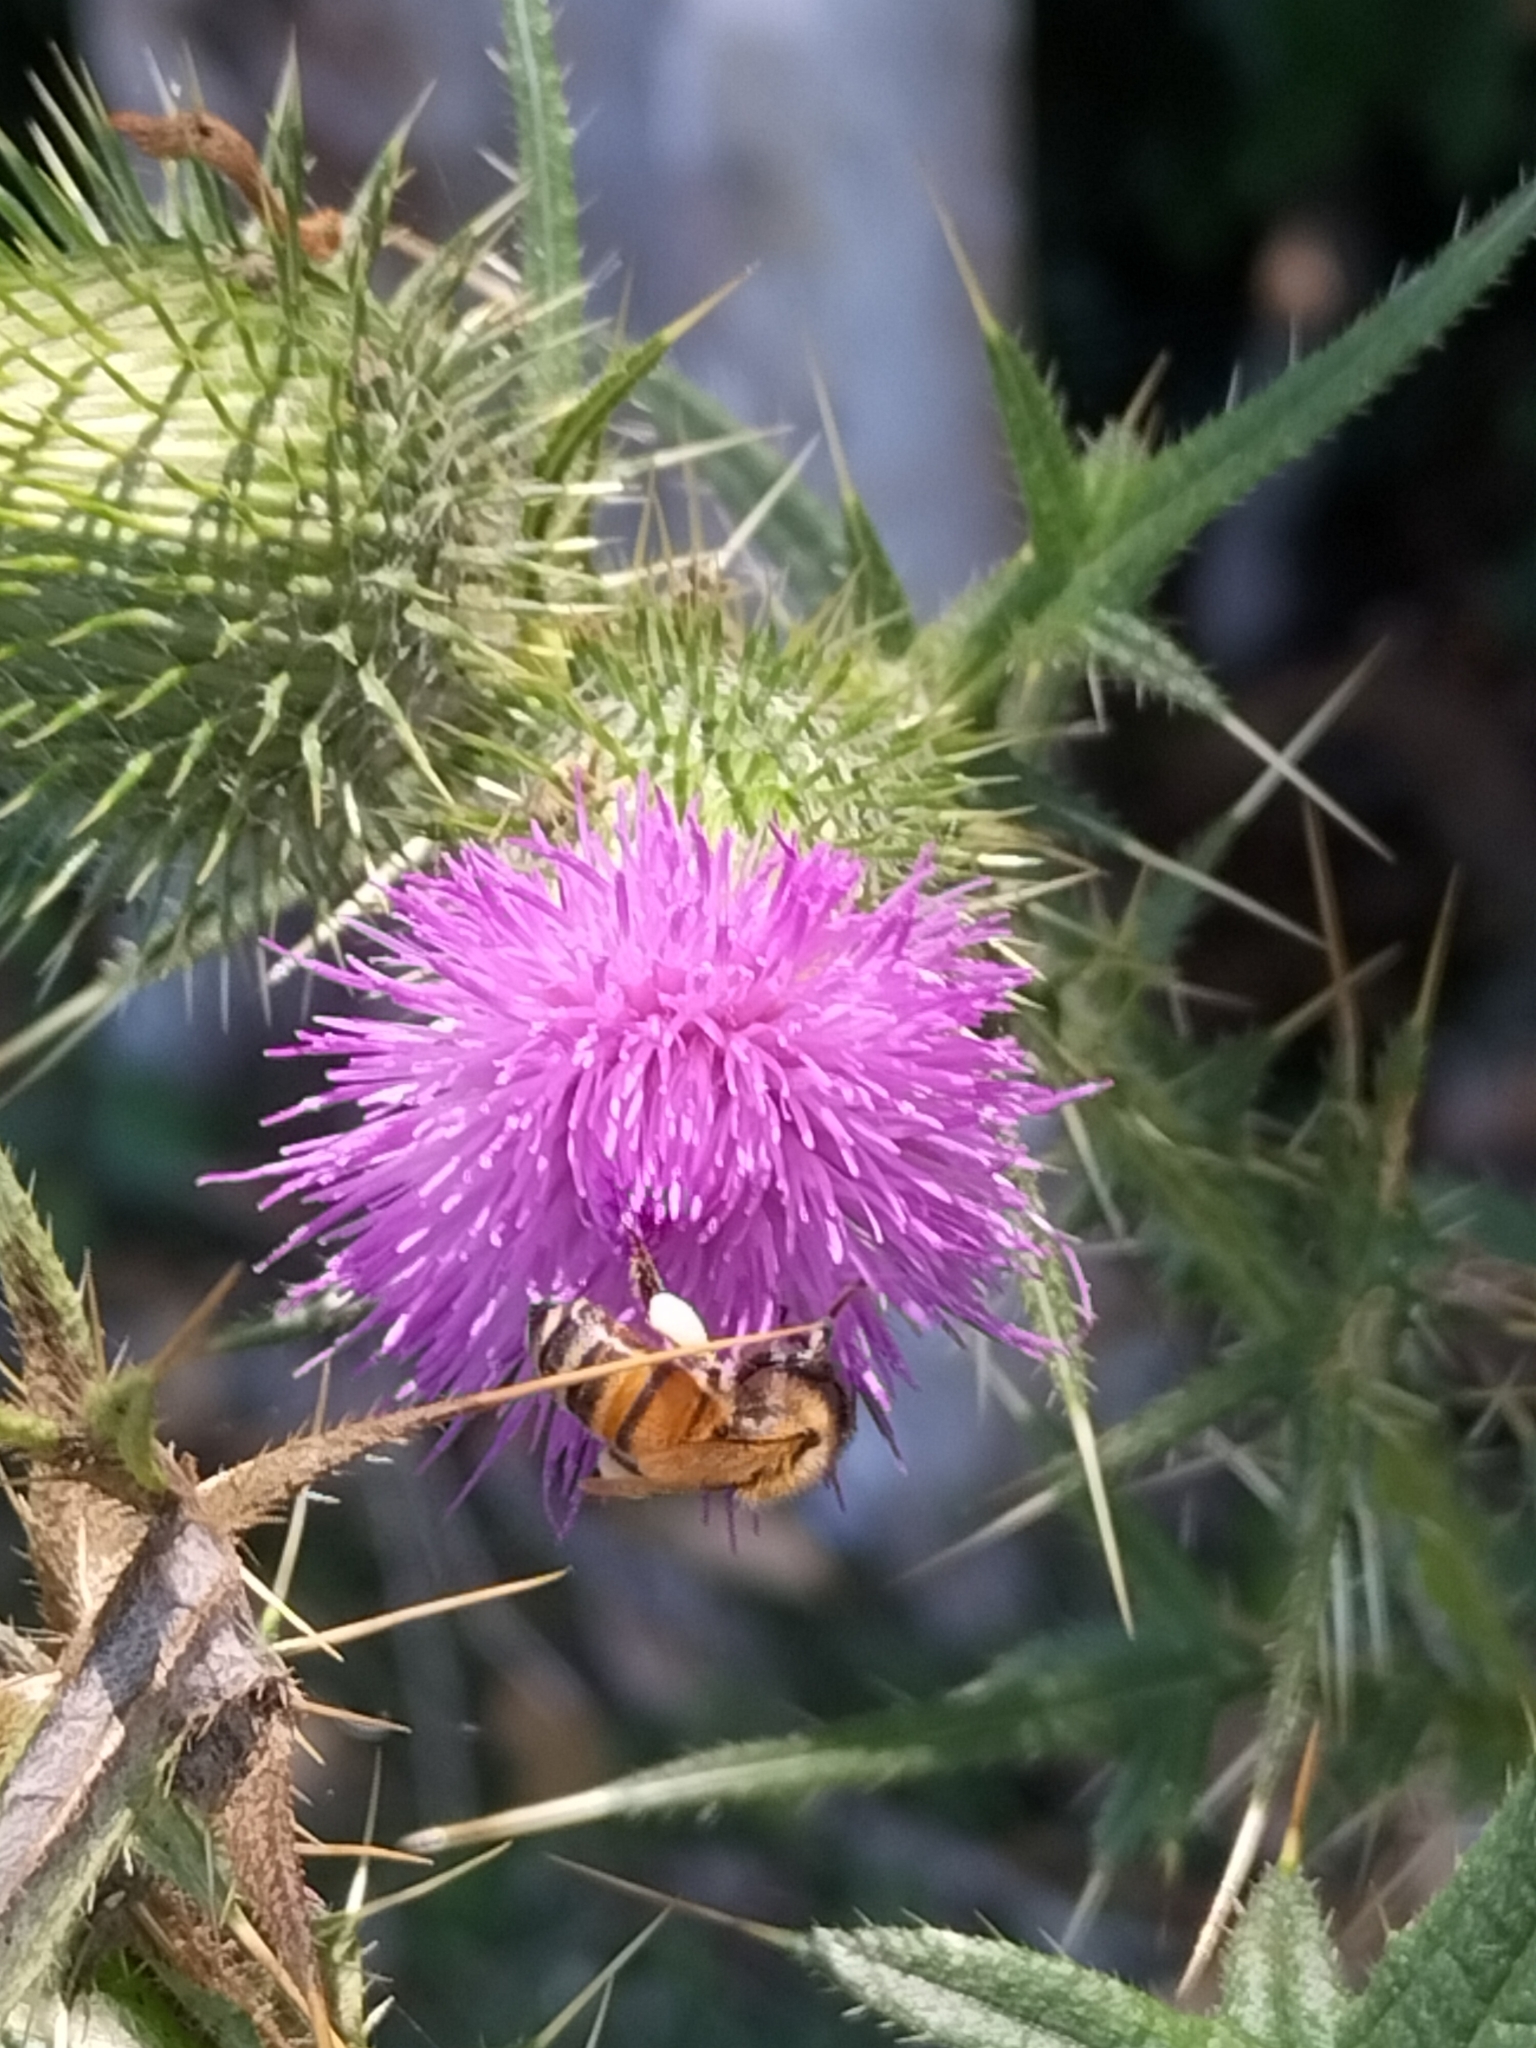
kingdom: Animalia
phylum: Arthropoda
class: Insecta
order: Hymenoptera
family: Apidae
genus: Apis
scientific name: Apis mellifera
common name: Honey bee
